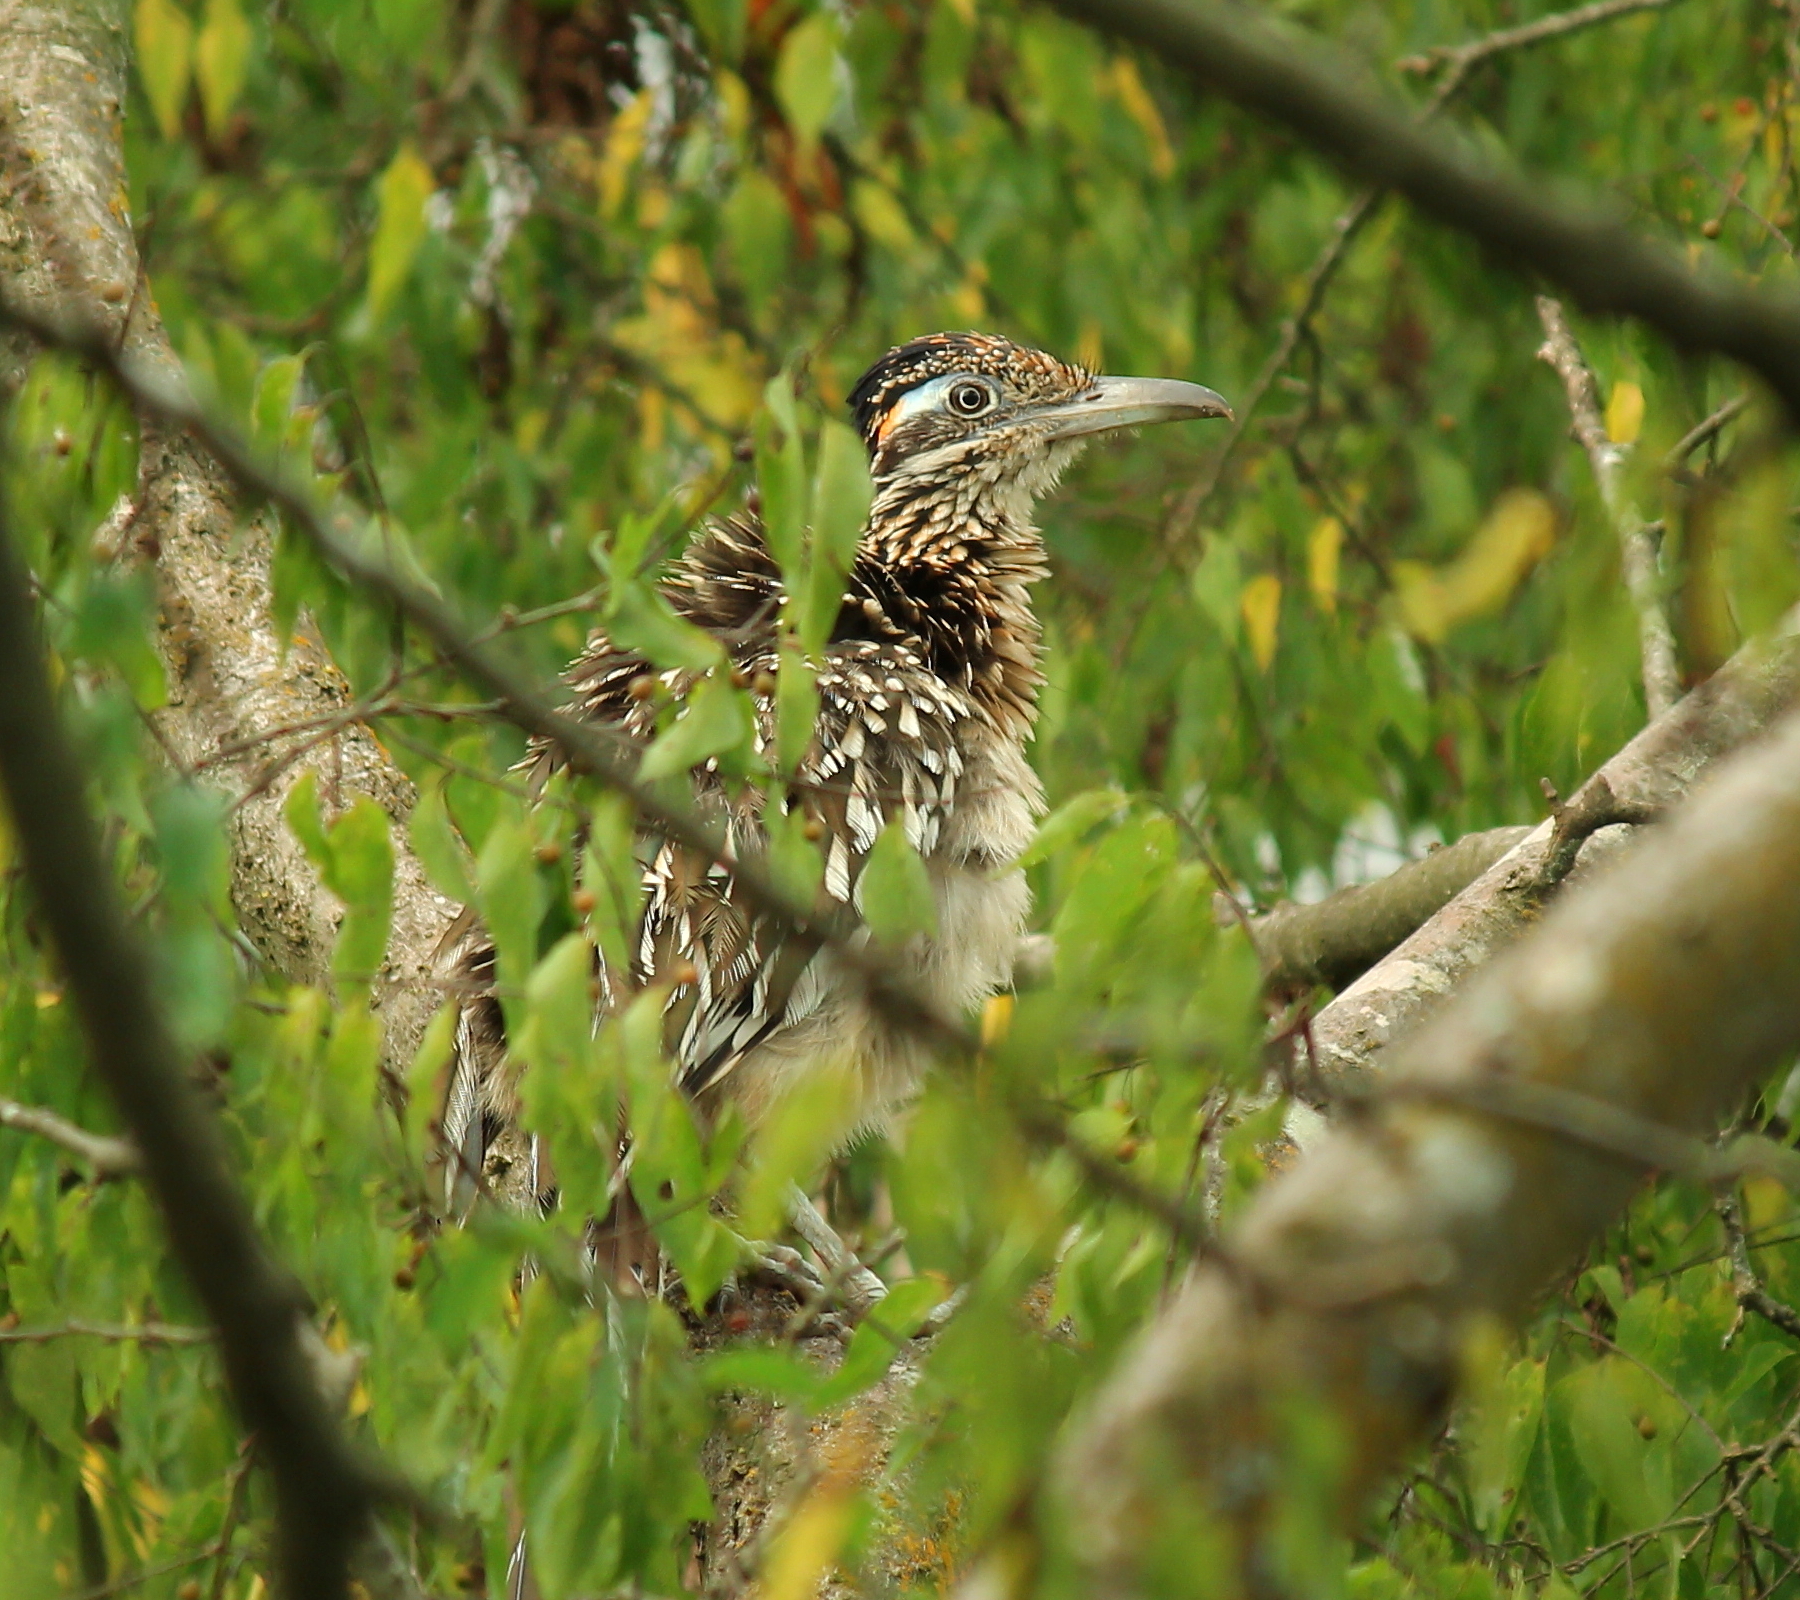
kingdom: Animalia
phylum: Chordata
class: Aves
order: Cuculiformes
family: Cuculidae
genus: Geococcyx
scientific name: Geococcyx californianus
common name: Greater roadrunner
